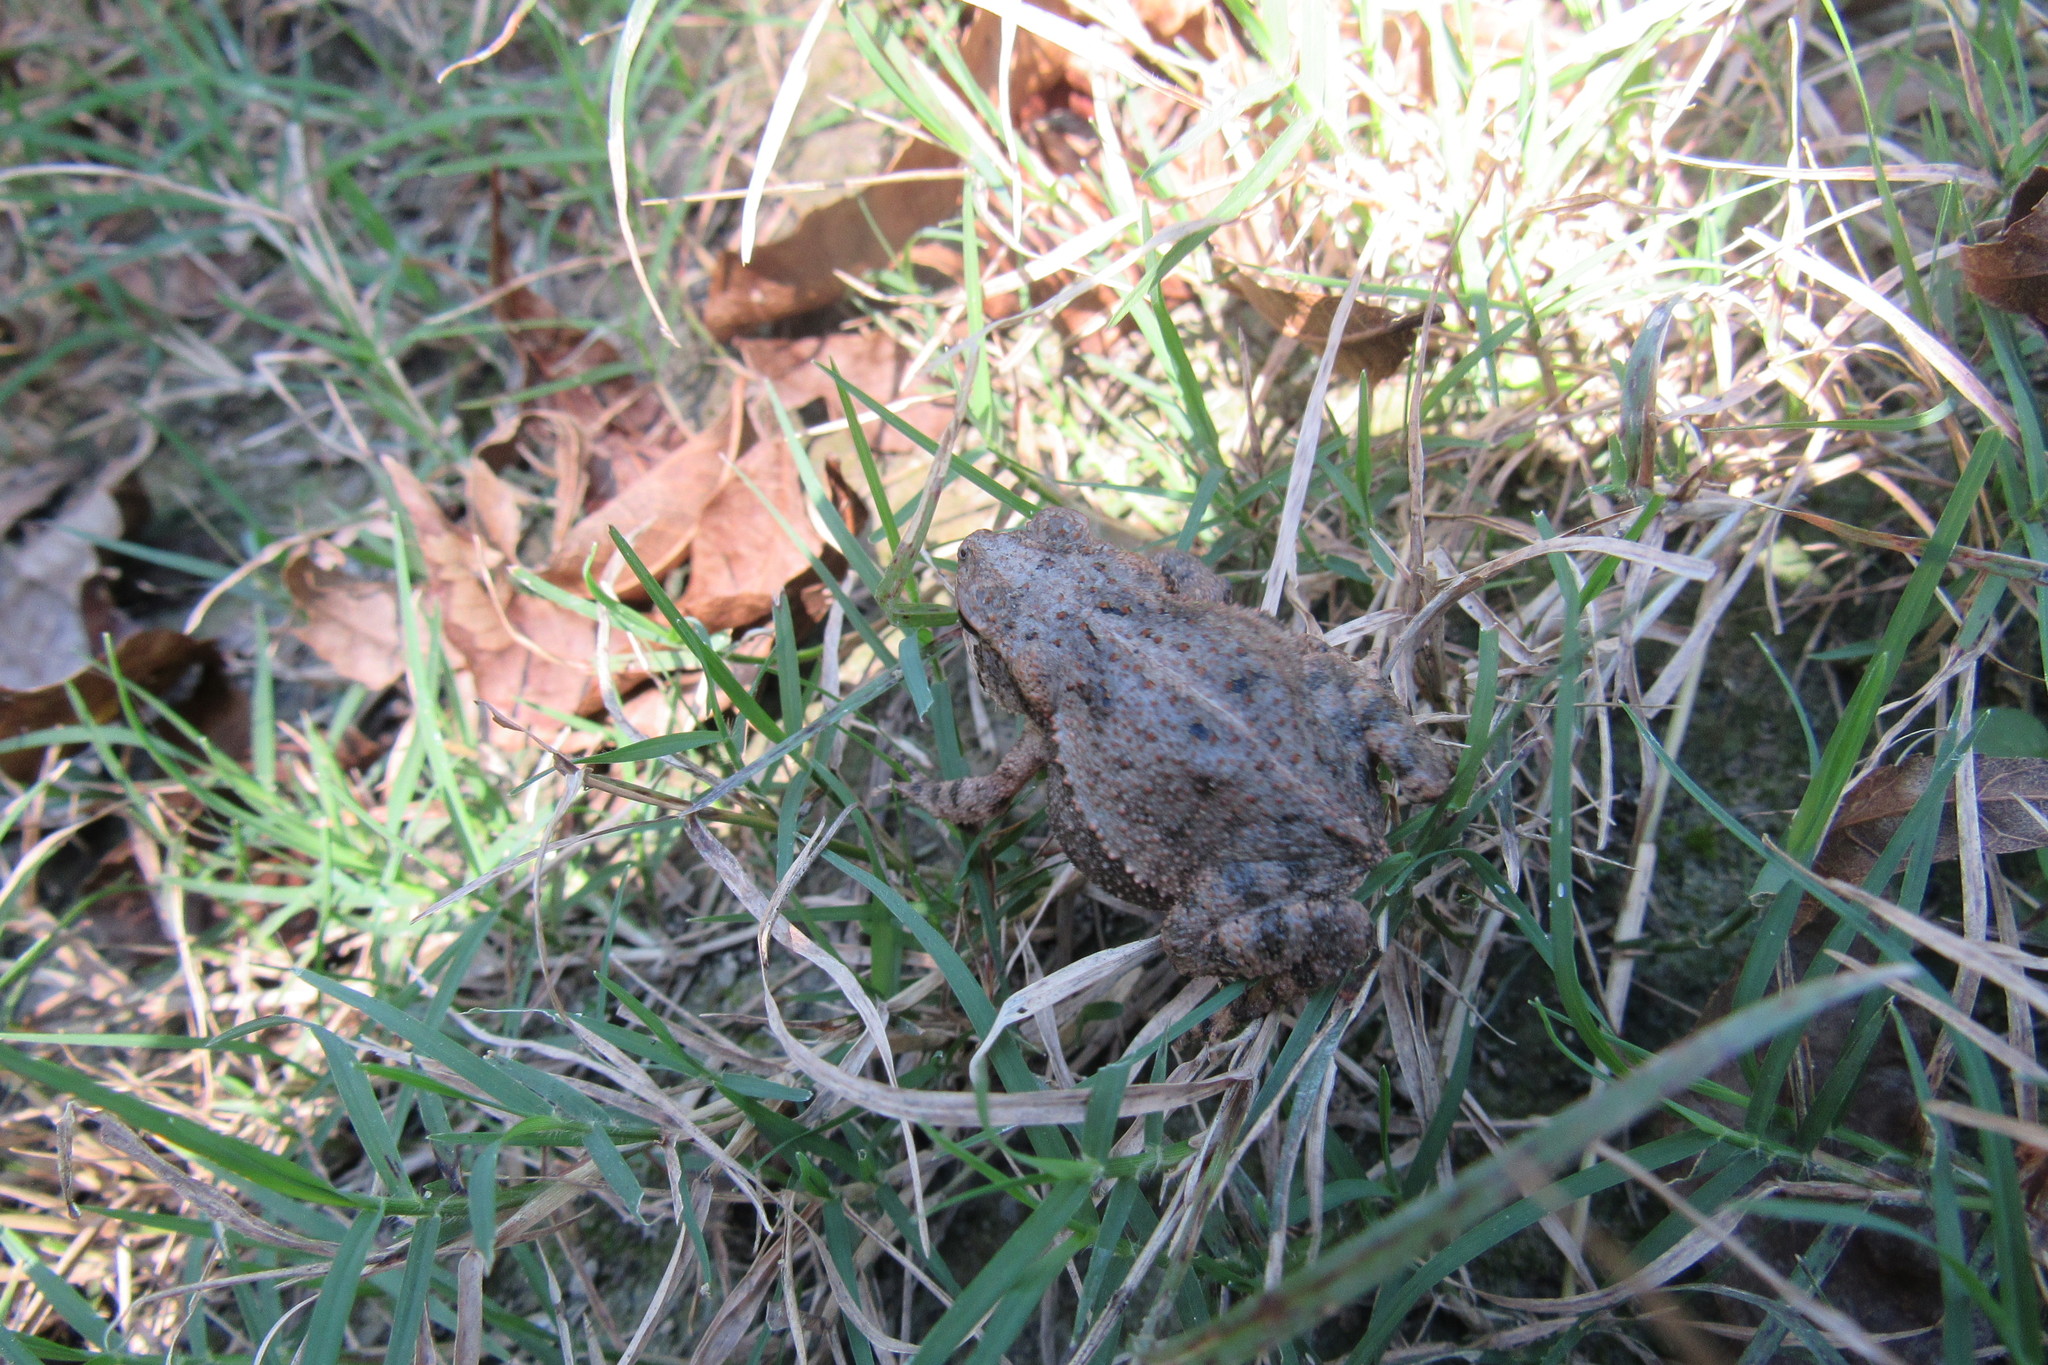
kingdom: Animalia
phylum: Chordata
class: Amphibia
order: Anura
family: Bufonidae
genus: Incilius
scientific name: Incilius nebulifer
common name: Gulf coast toad
